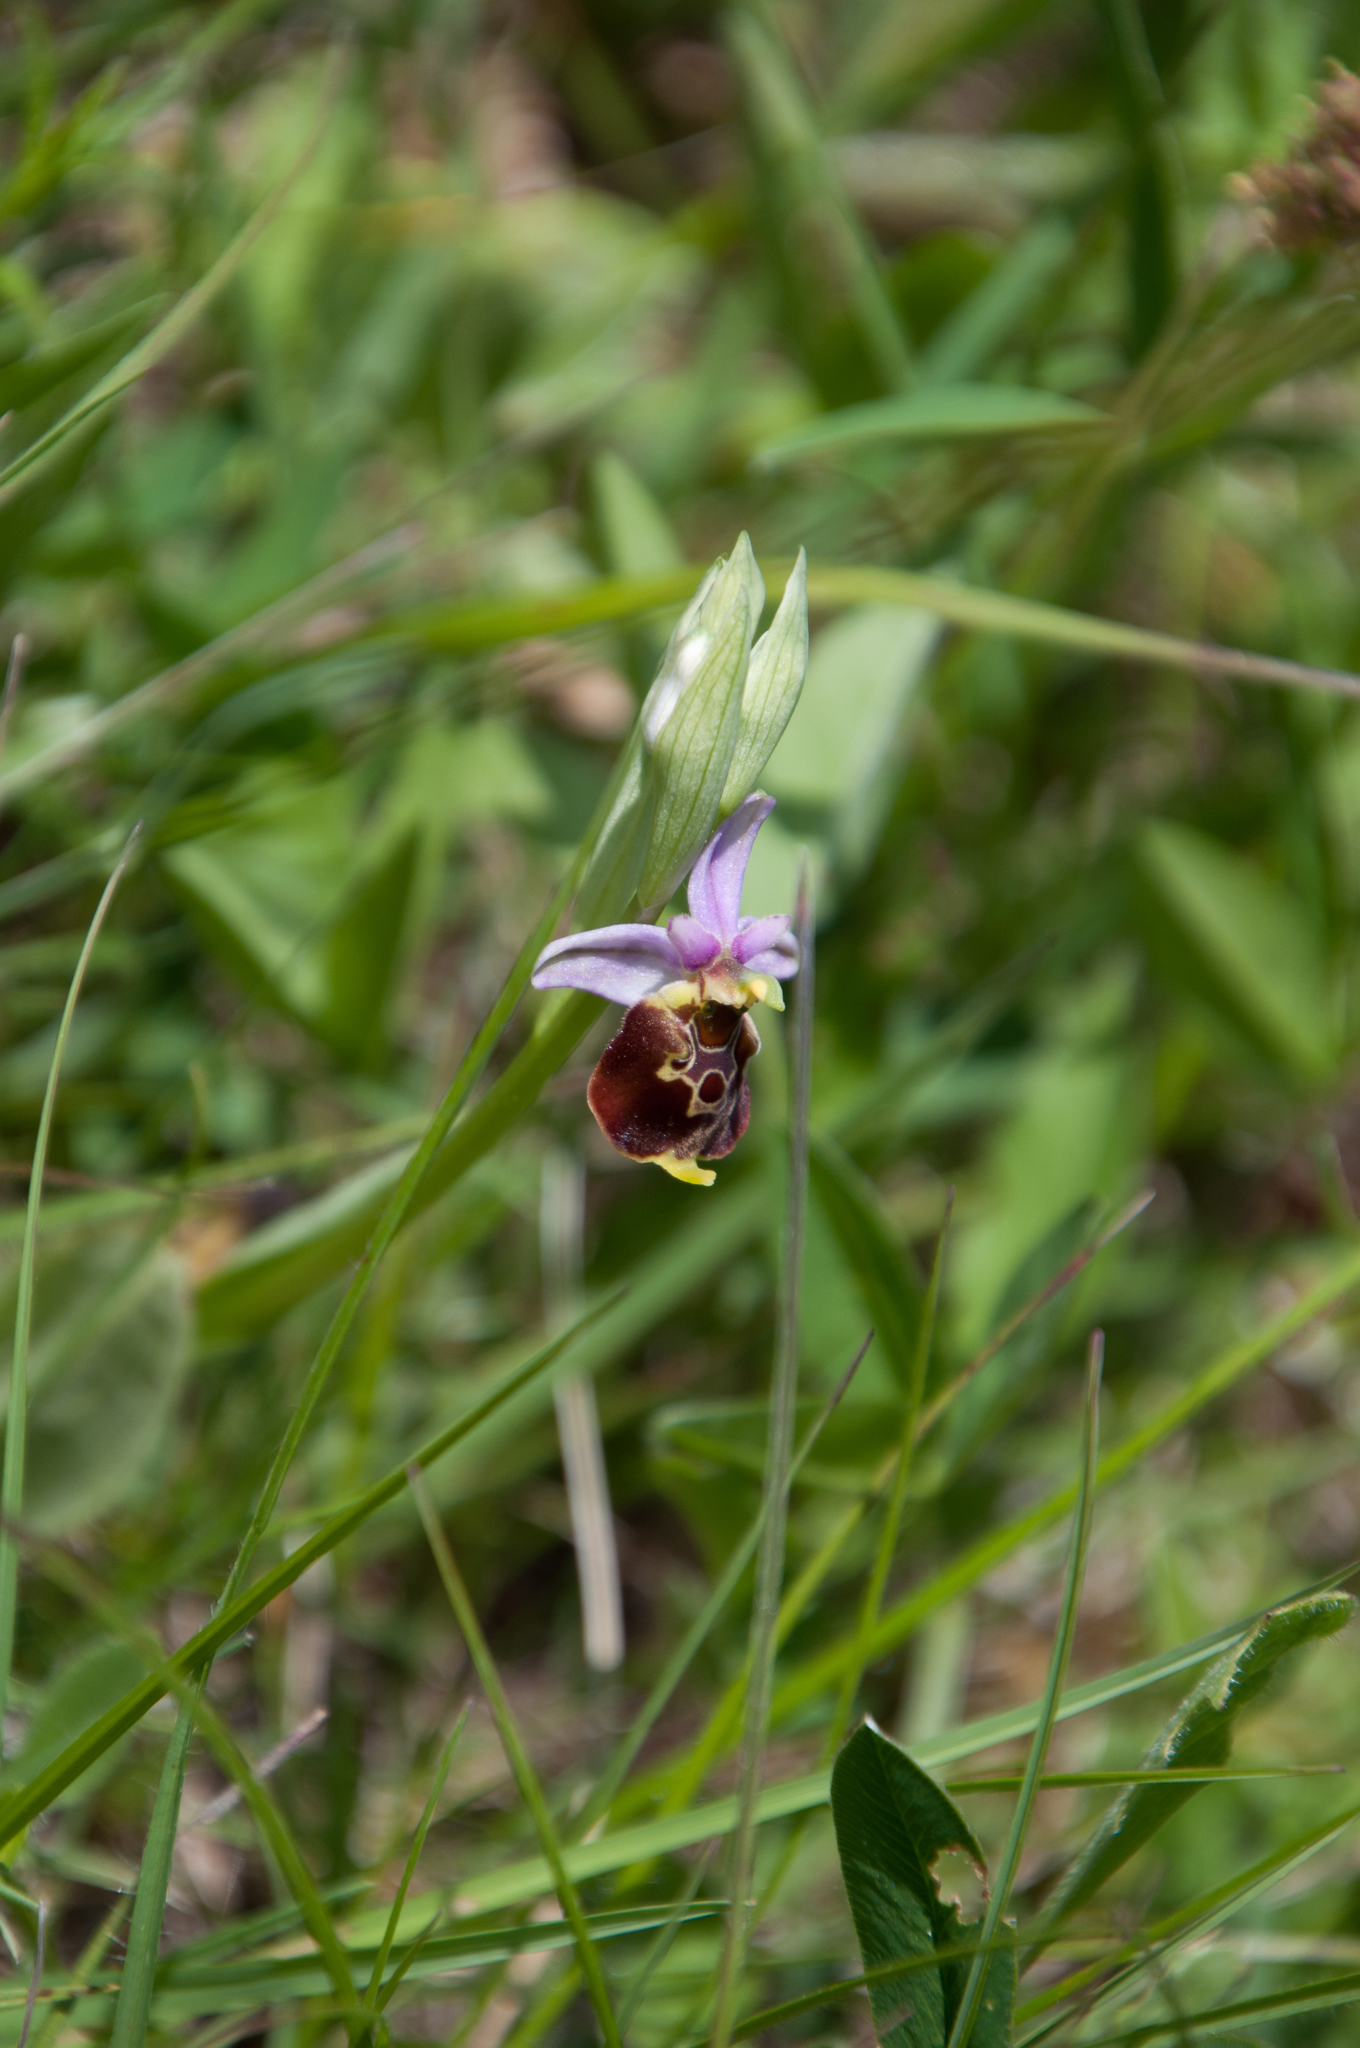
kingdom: Plantae
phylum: Tracheophyta
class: Liliopsida
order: Asparagales
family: Orchidaceae
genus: Ophrys
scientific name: Ophrys holosericea
